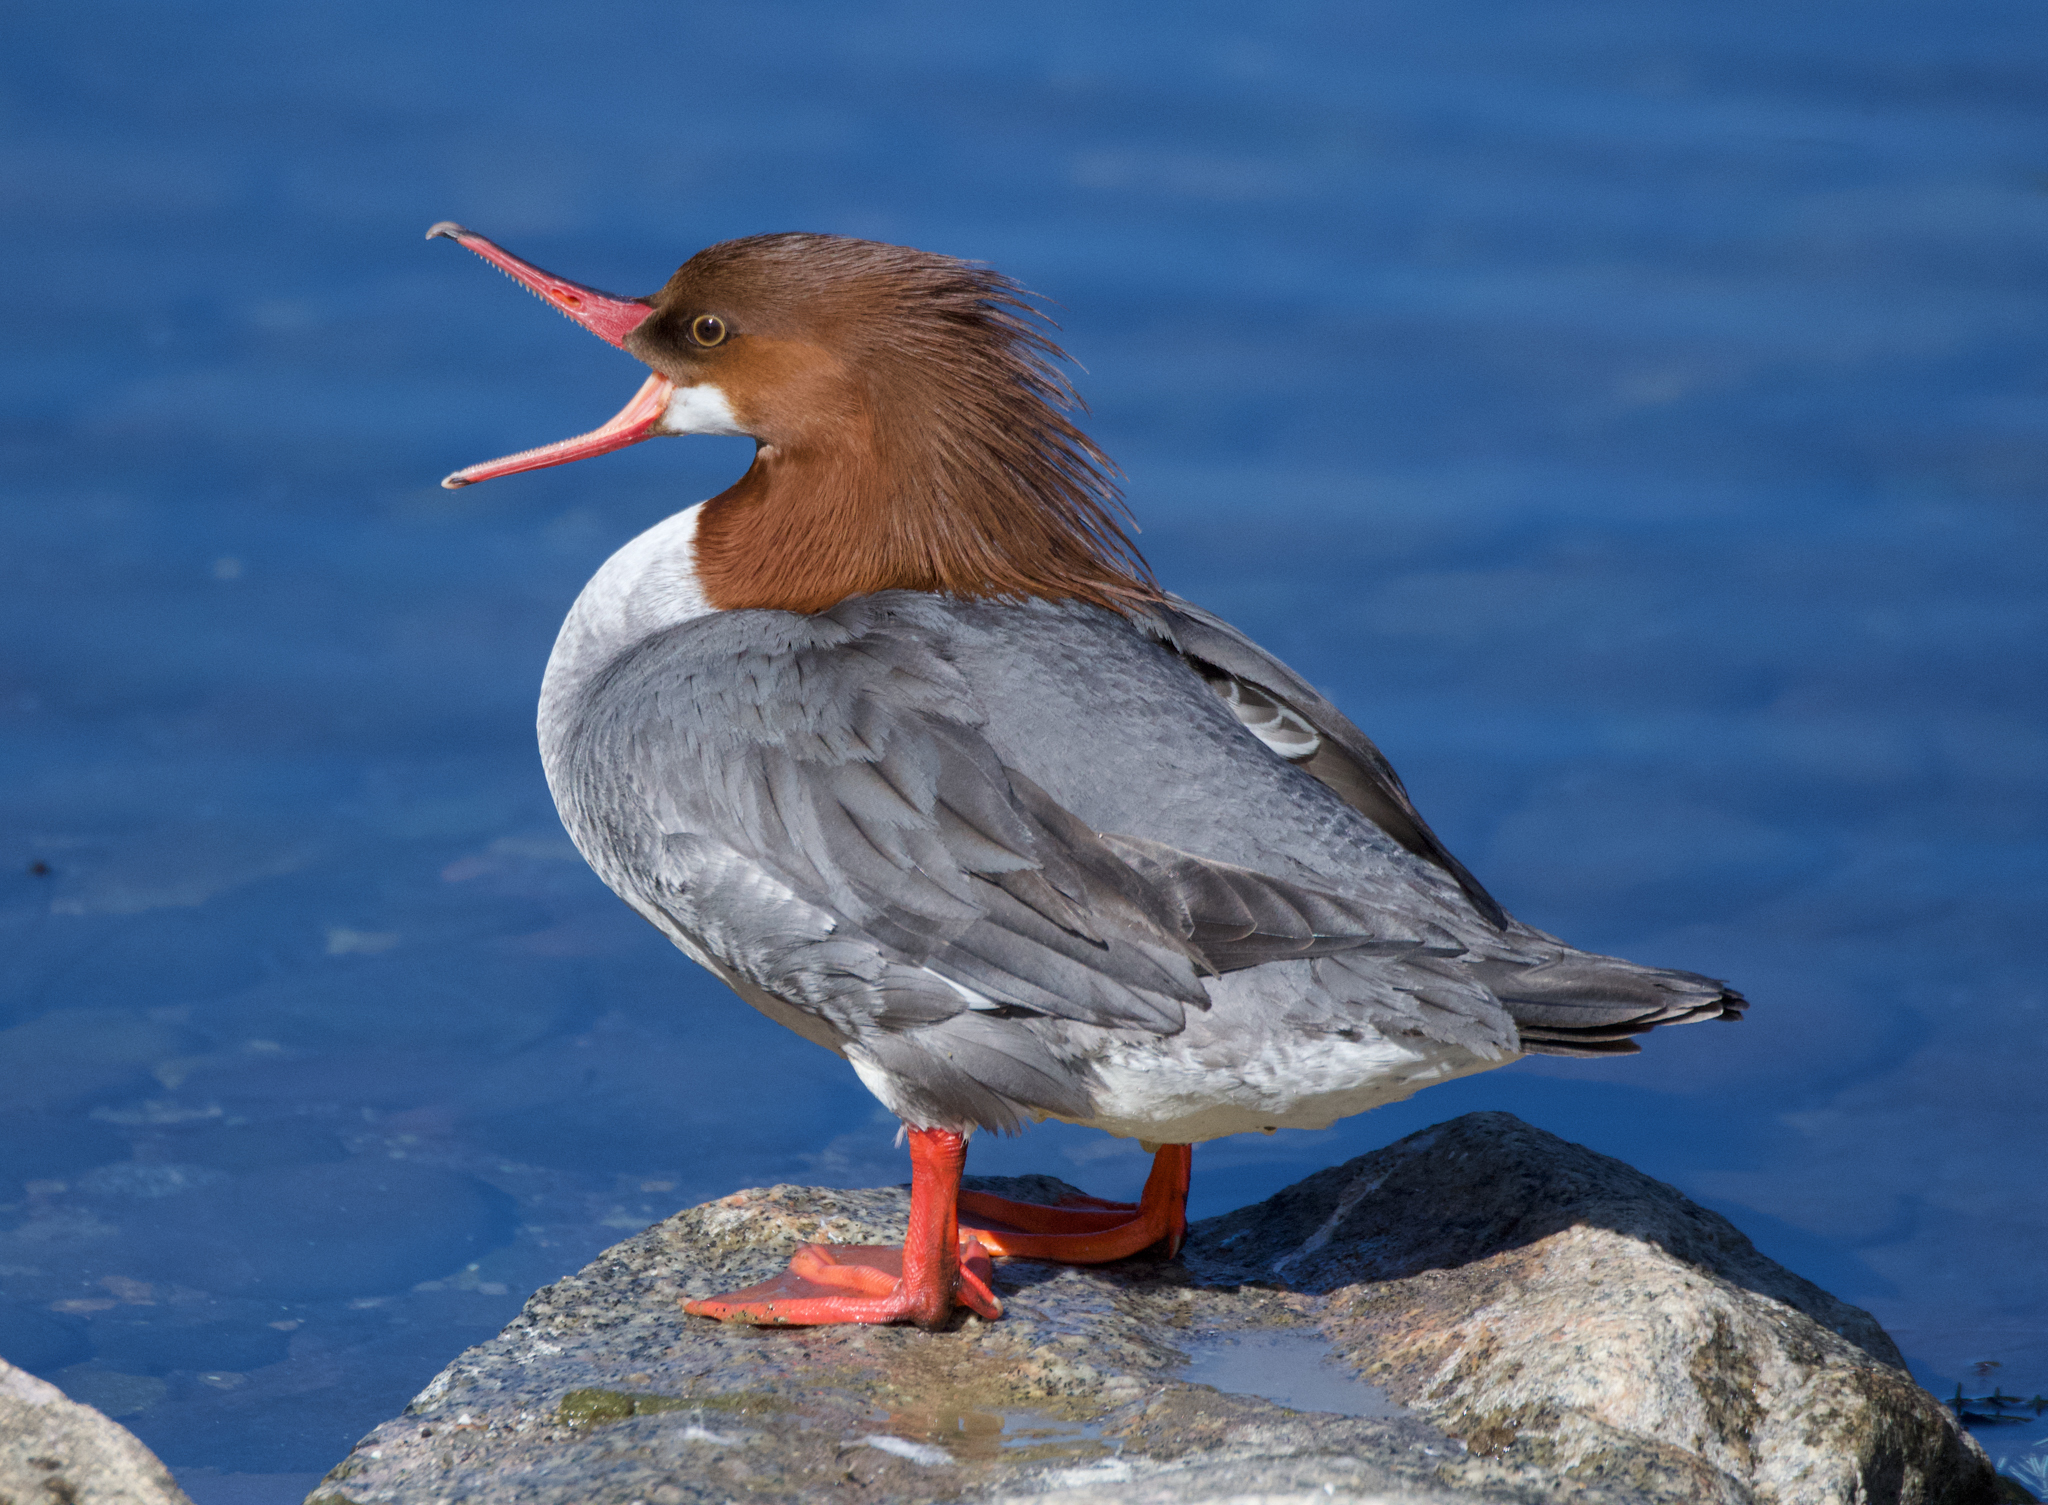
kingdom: Animalia
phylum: Chordata
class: Aves
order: Anseriformes
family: Anatidae
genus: Mergus
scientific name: Mergus merganser
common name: Common merganser
